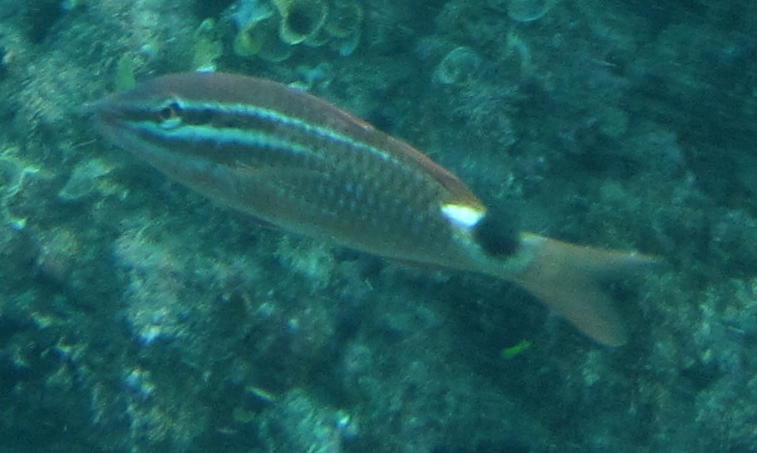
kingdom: Animalia
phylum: Chordata
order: Perciformes
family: Mullidae
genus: Parupeneus
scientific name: Parupeneus rubescens
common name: Rosy goatfish
